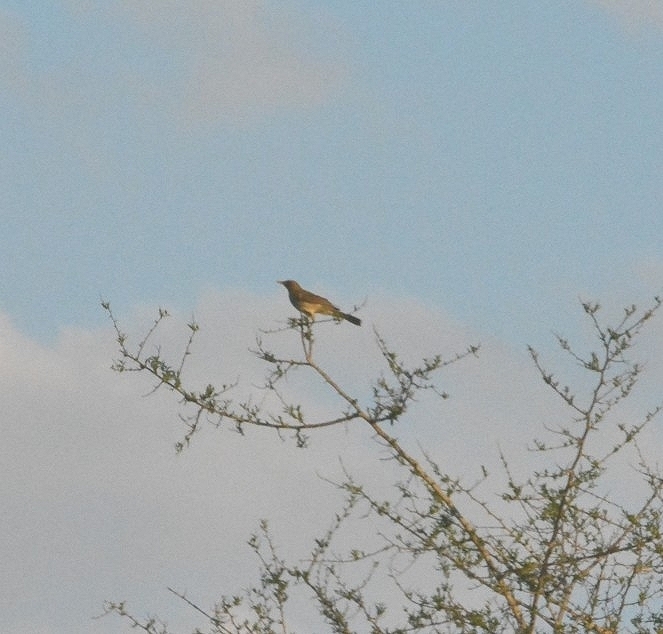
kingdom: Animalia
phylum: Chordata
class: Aves
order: Passeriformes
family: Turdidae
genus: Turdus
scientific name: Turdus amaurochalinus
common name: Creamy-bellied thrush
